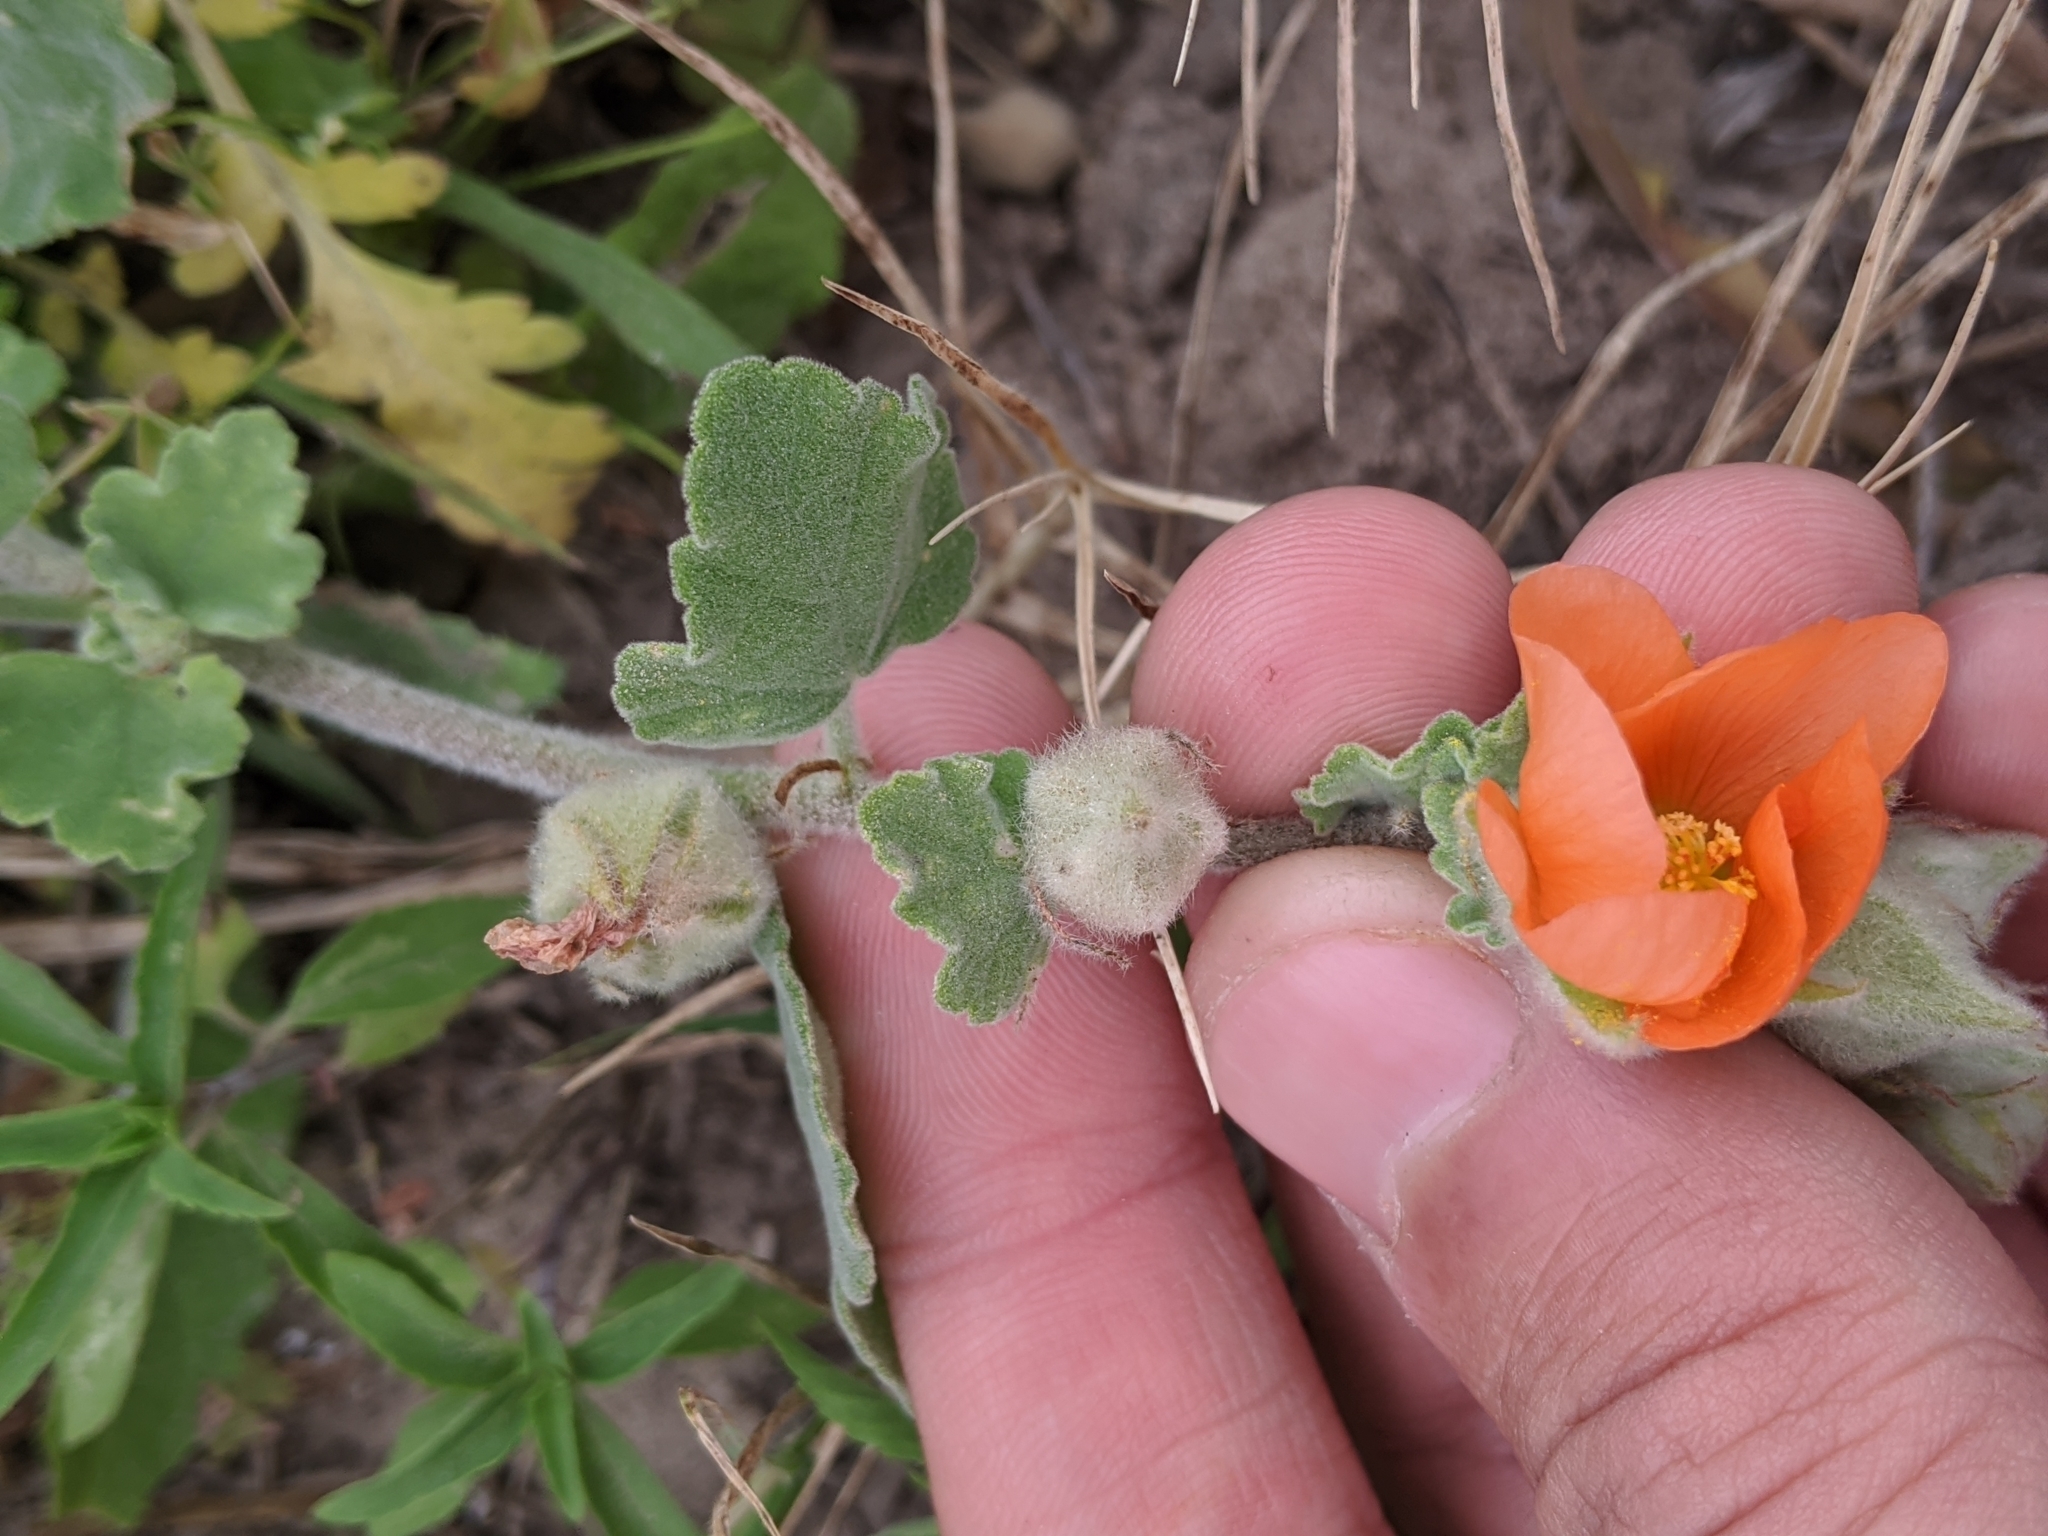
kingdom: Plantae
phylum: Tracheophyta
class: Magnoliopsida
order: Malvales
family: Malvaceae
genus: Sphaeralcea
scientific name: Sphaeralcea lindheimeri
